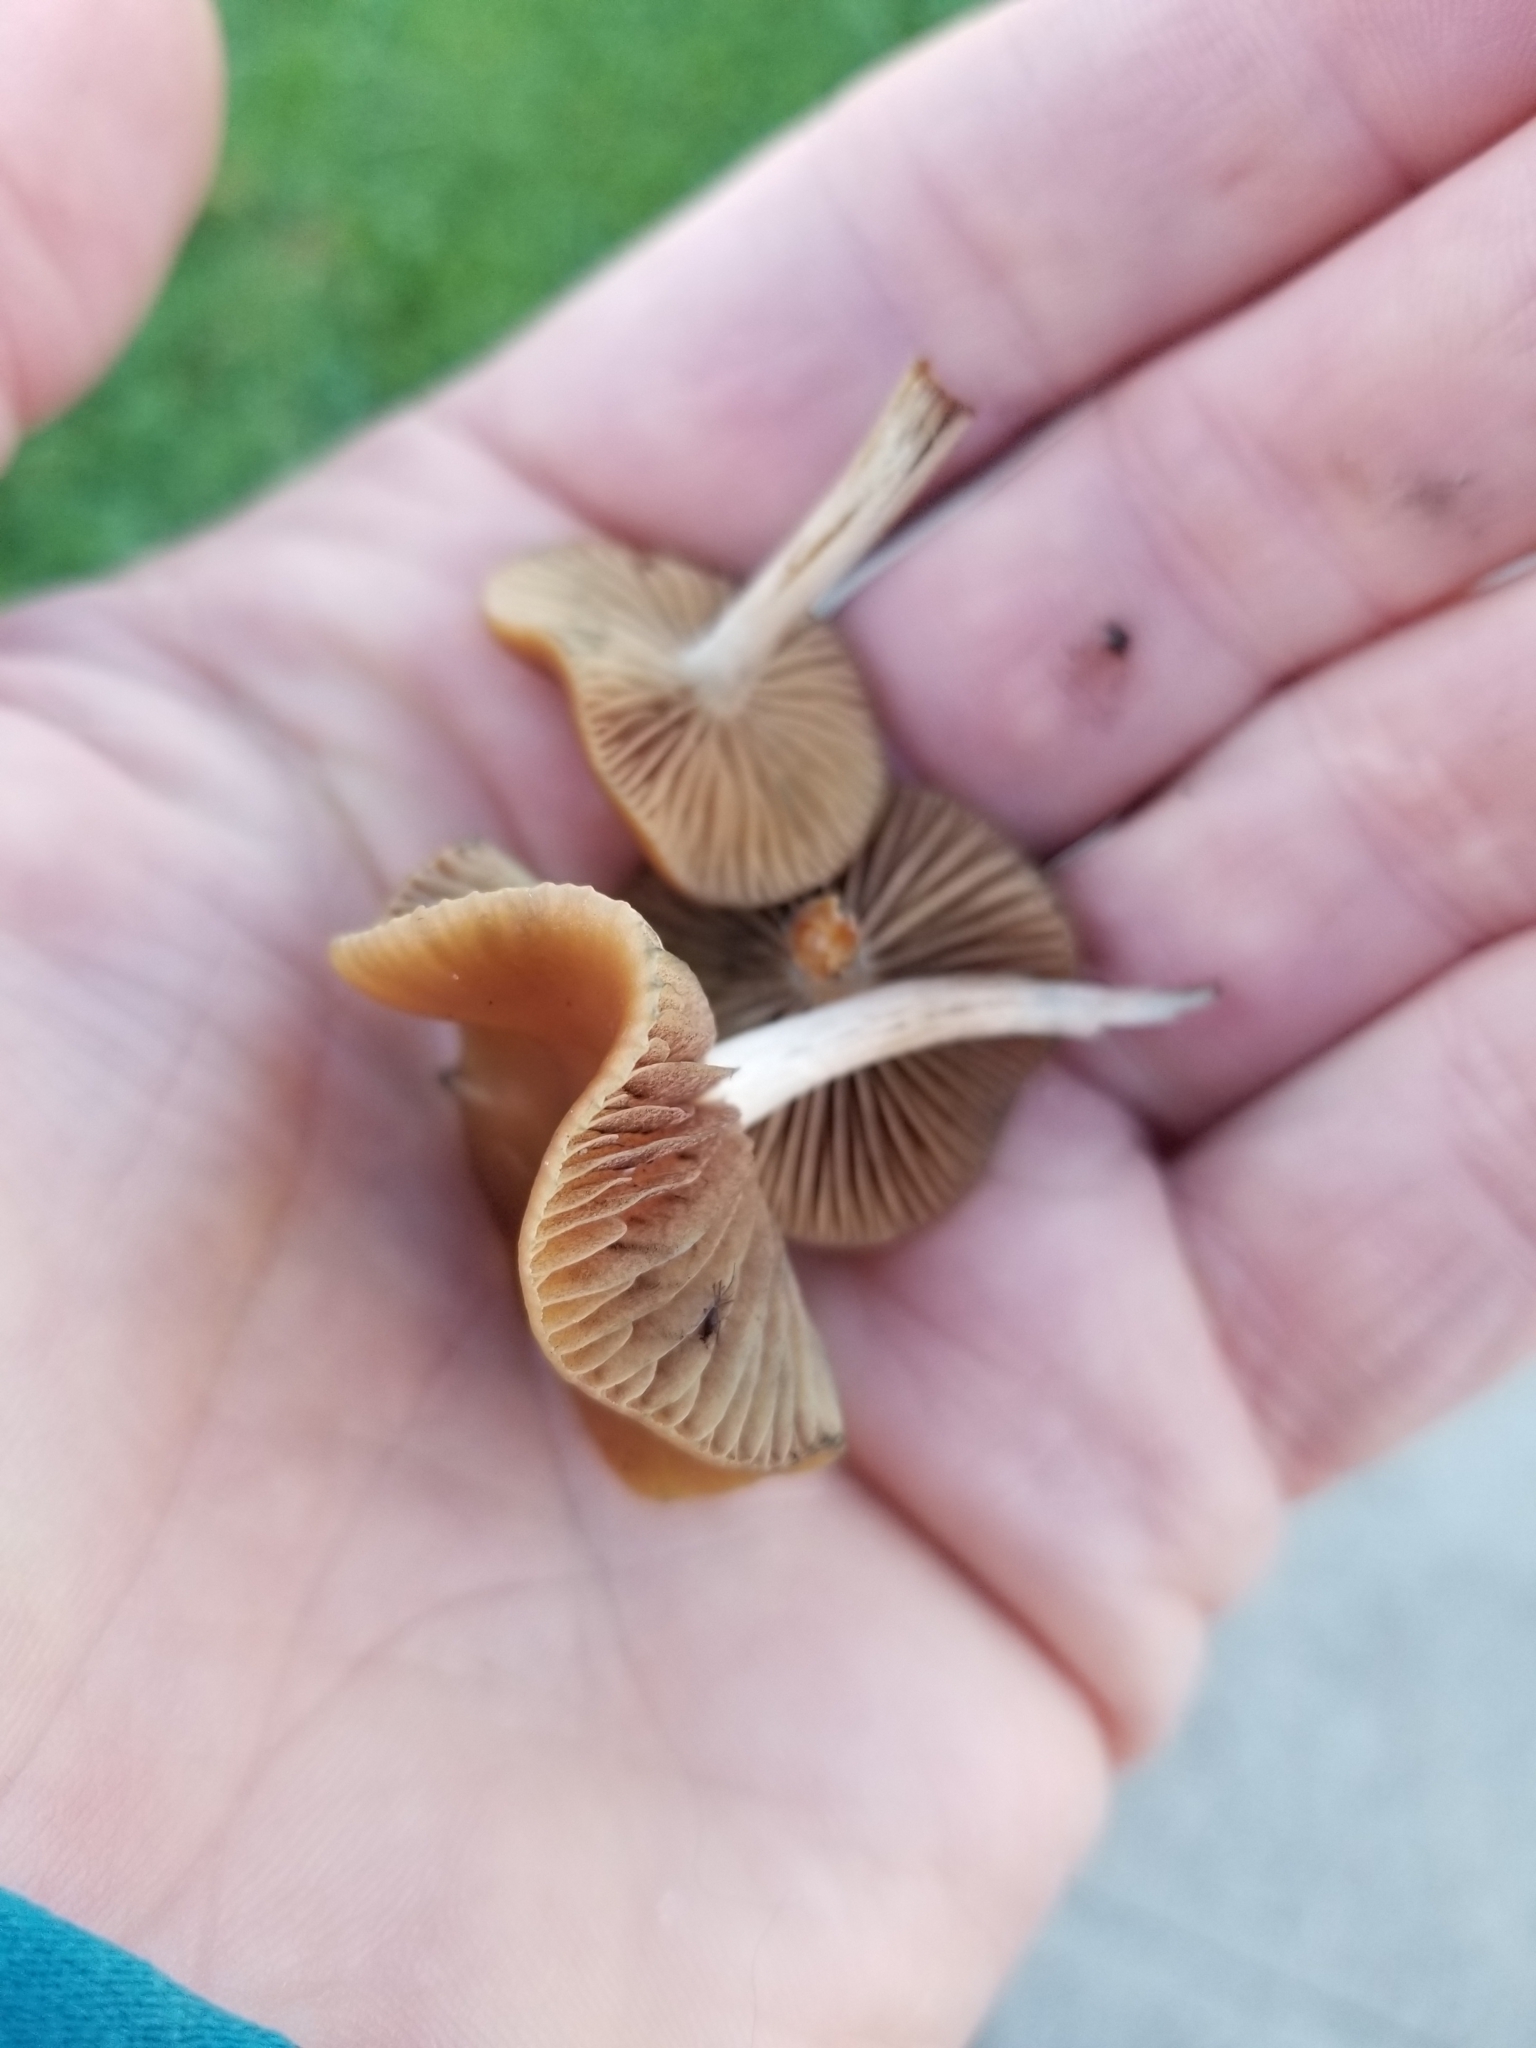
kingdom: Fungi
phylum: Basidiomycota
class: Agaricomycetes
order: Agaricales
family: Hymenogastraceae
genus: Psilocybe
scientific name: Psilocybe cyanescens
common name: Blueleg brownie
